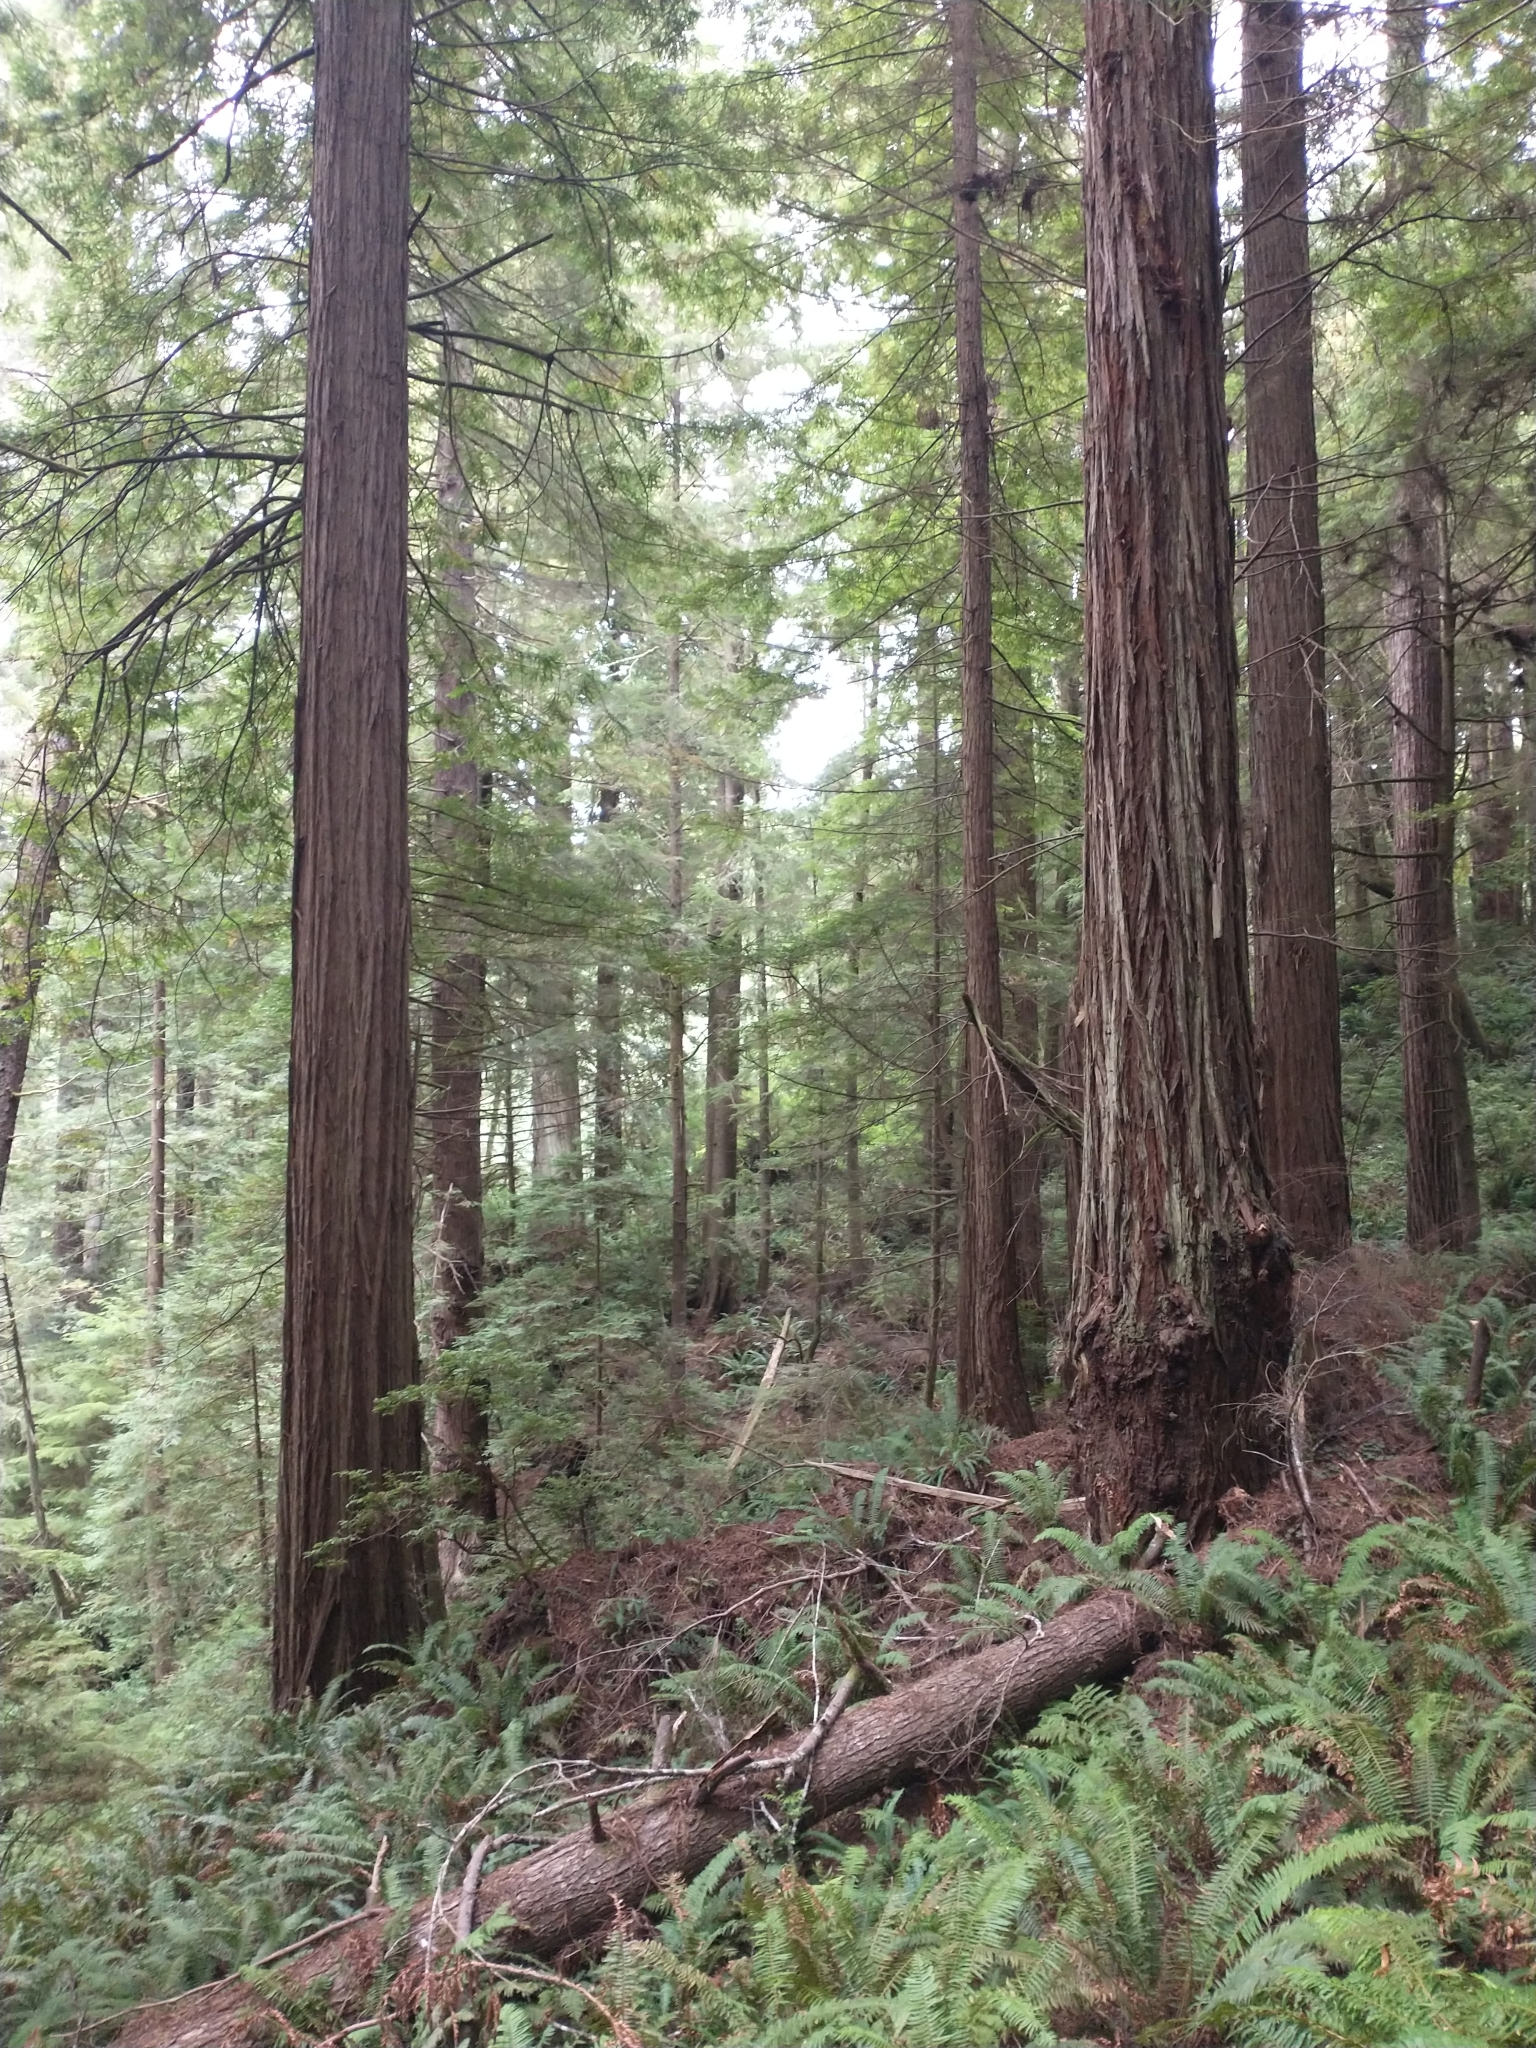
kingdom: Plantae
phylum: Tracheophyta
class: Pinopsida
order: Pinales
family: Cupressaceae
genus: Sequoia
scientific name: Sequoia sempervirens
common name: Coast redwood
